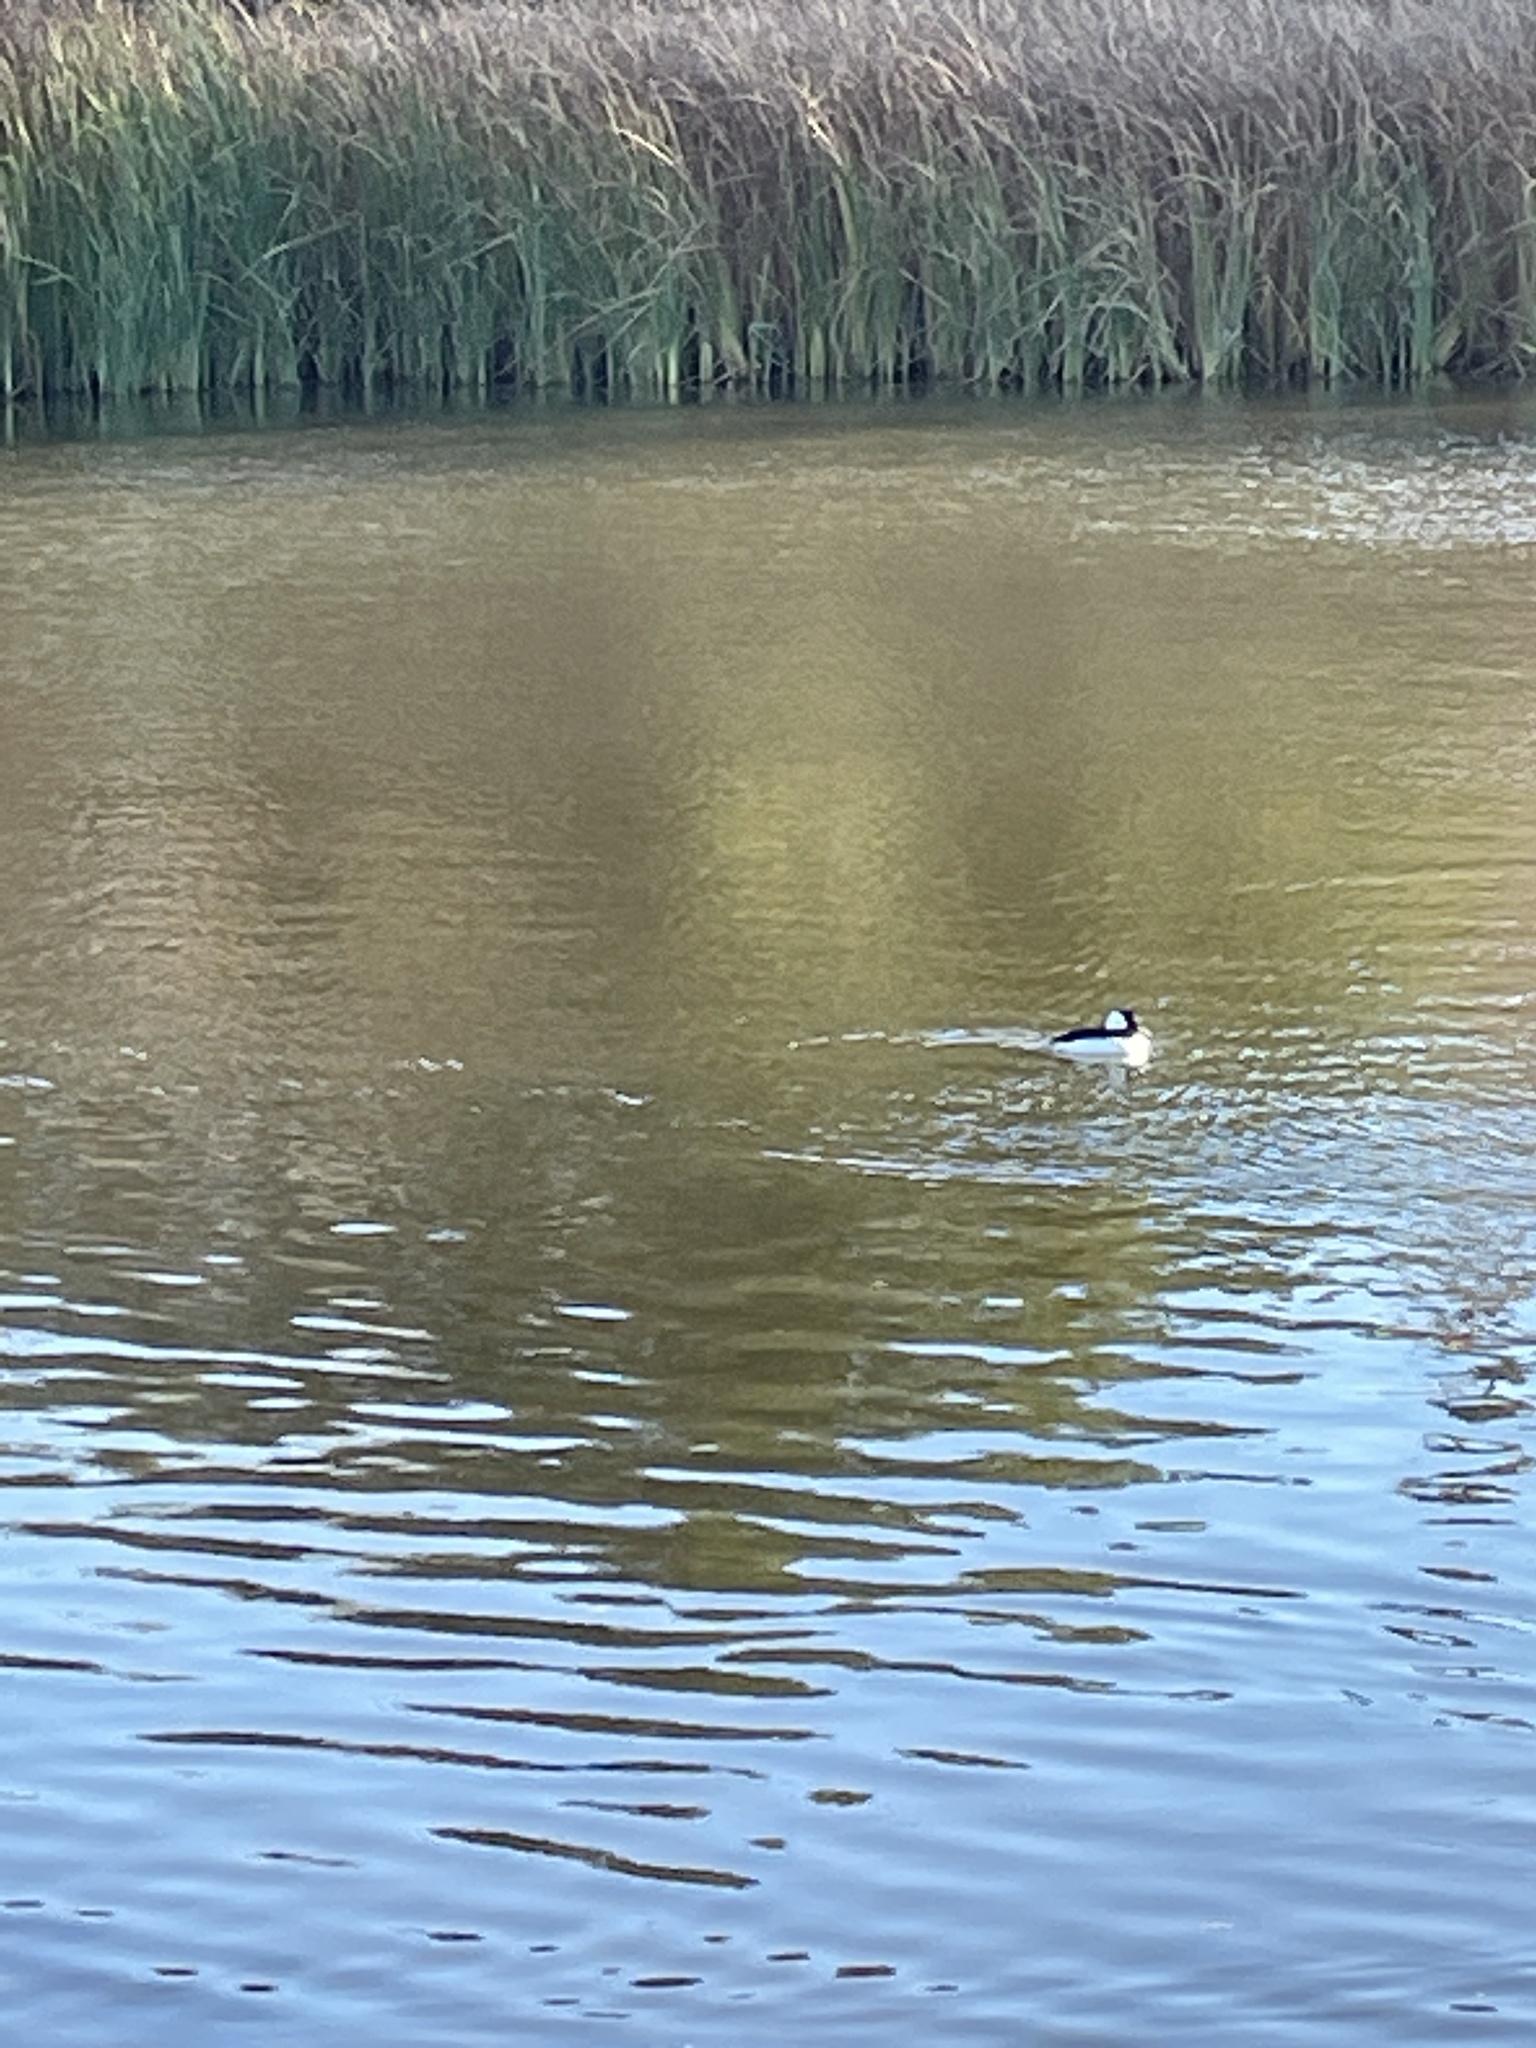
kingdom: Animalia
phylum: Chordata
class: Aves
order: Anseriformes
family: Anatidae
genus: Bucephala
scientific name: Bucephala albeola
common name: Bufflehead
